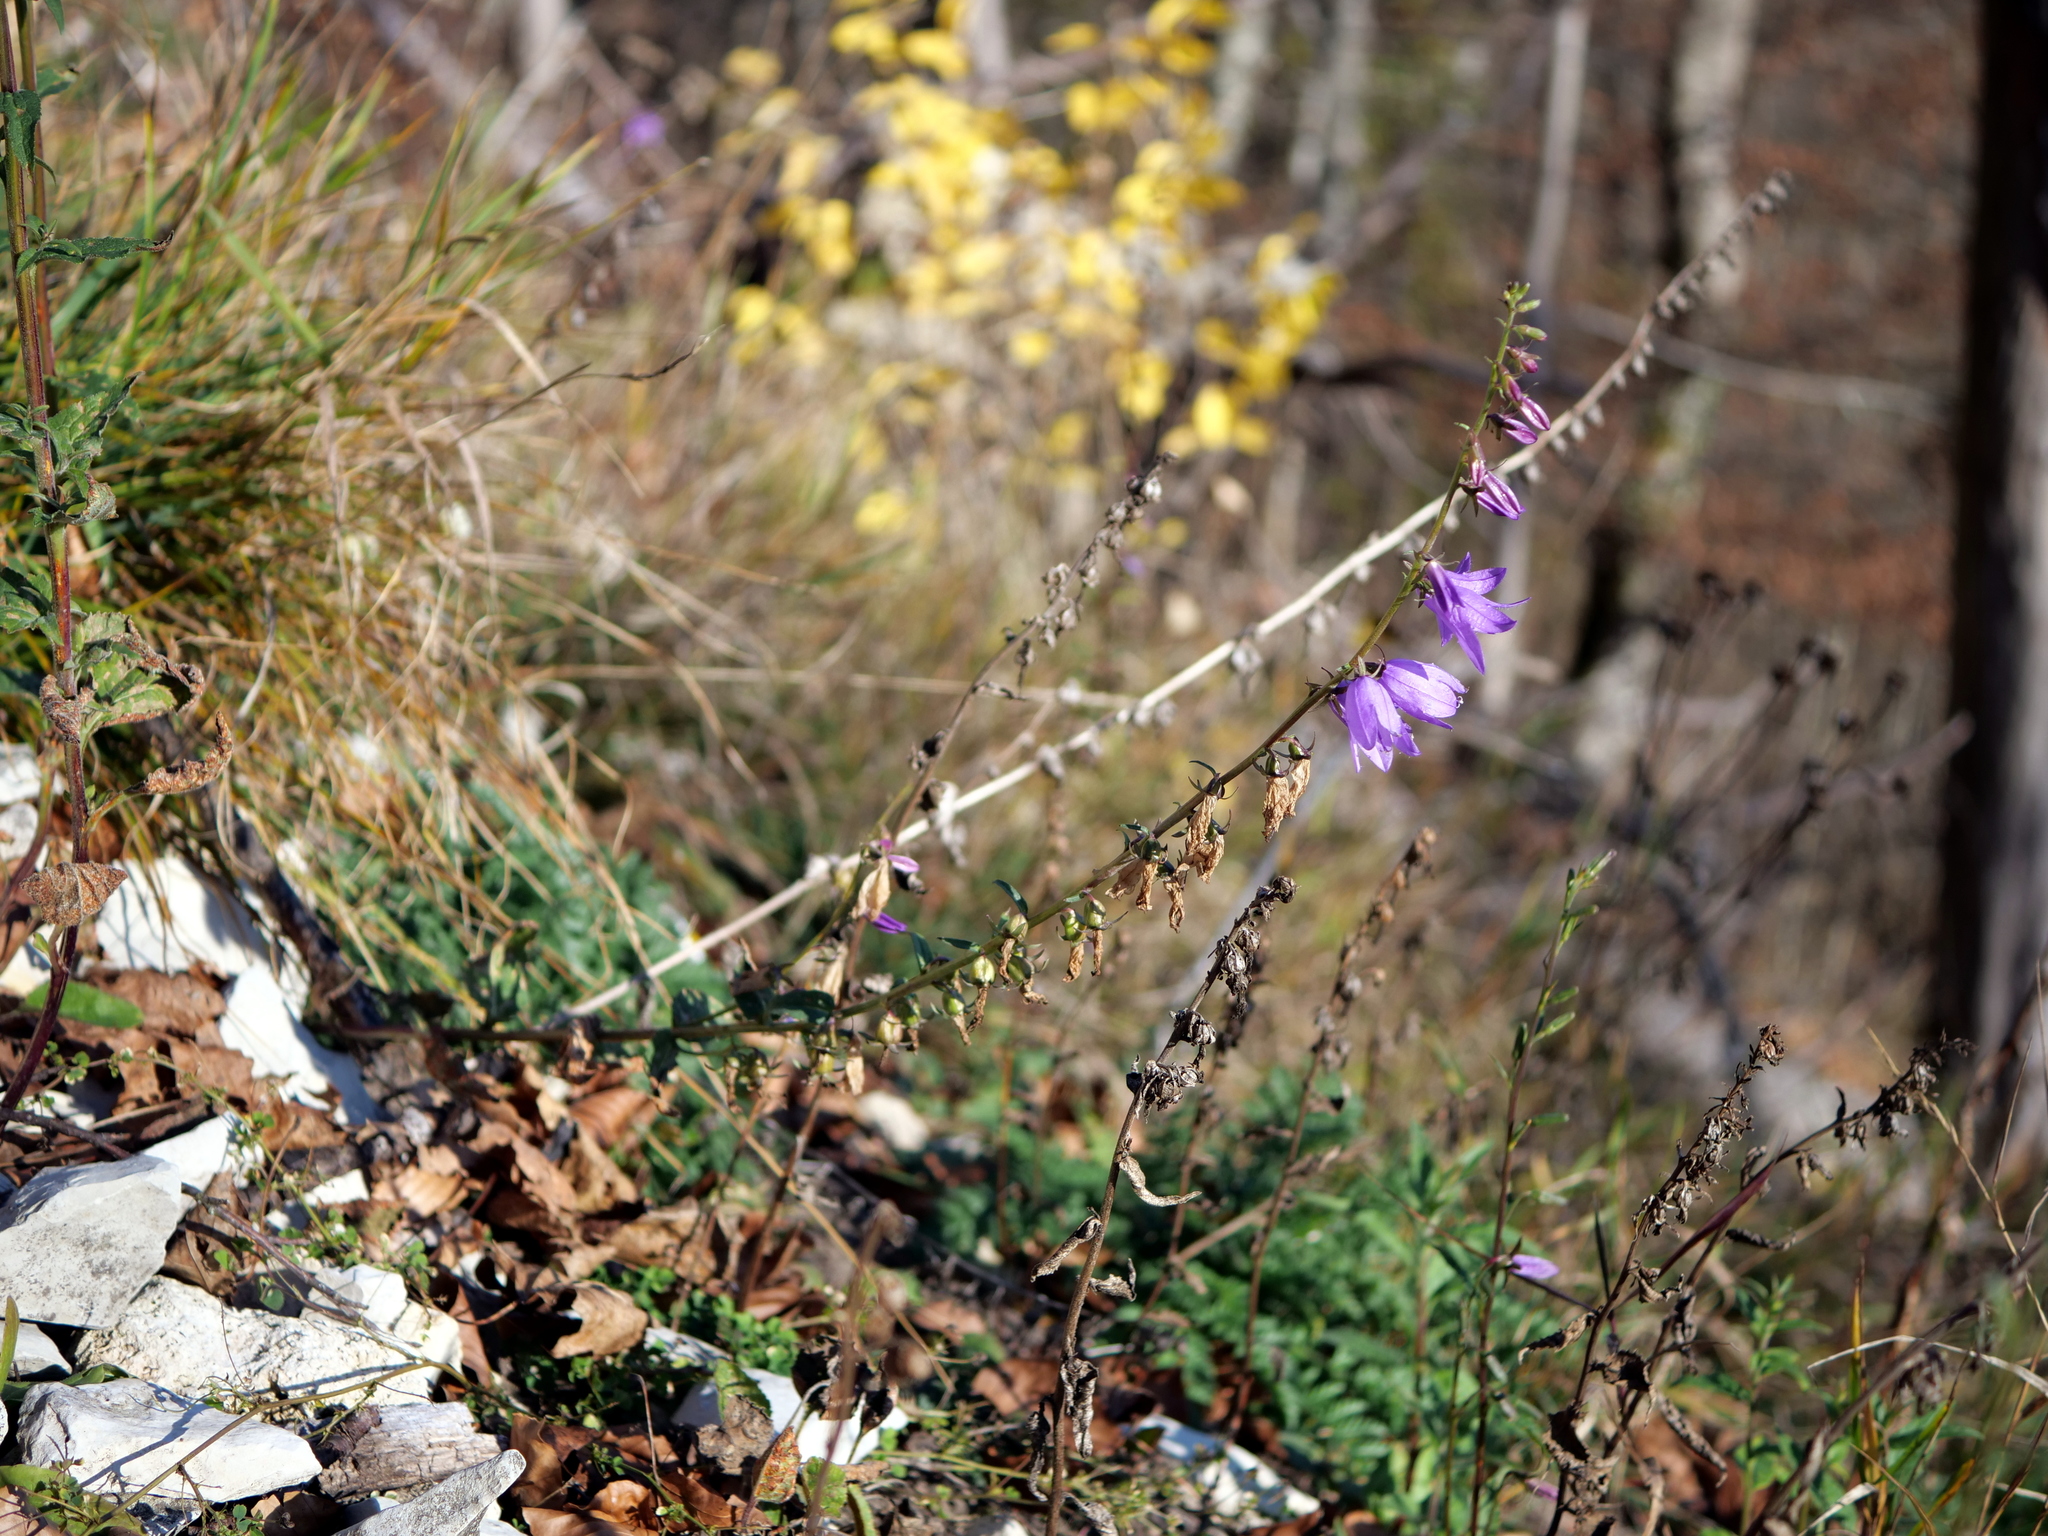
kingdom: Plantae
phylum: Tracheophyta
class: Magnoliopsida
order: Asterales
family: Campanulaceae
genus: Campanula
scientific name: Campanula rapunculoides
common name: Creeping bellflower
